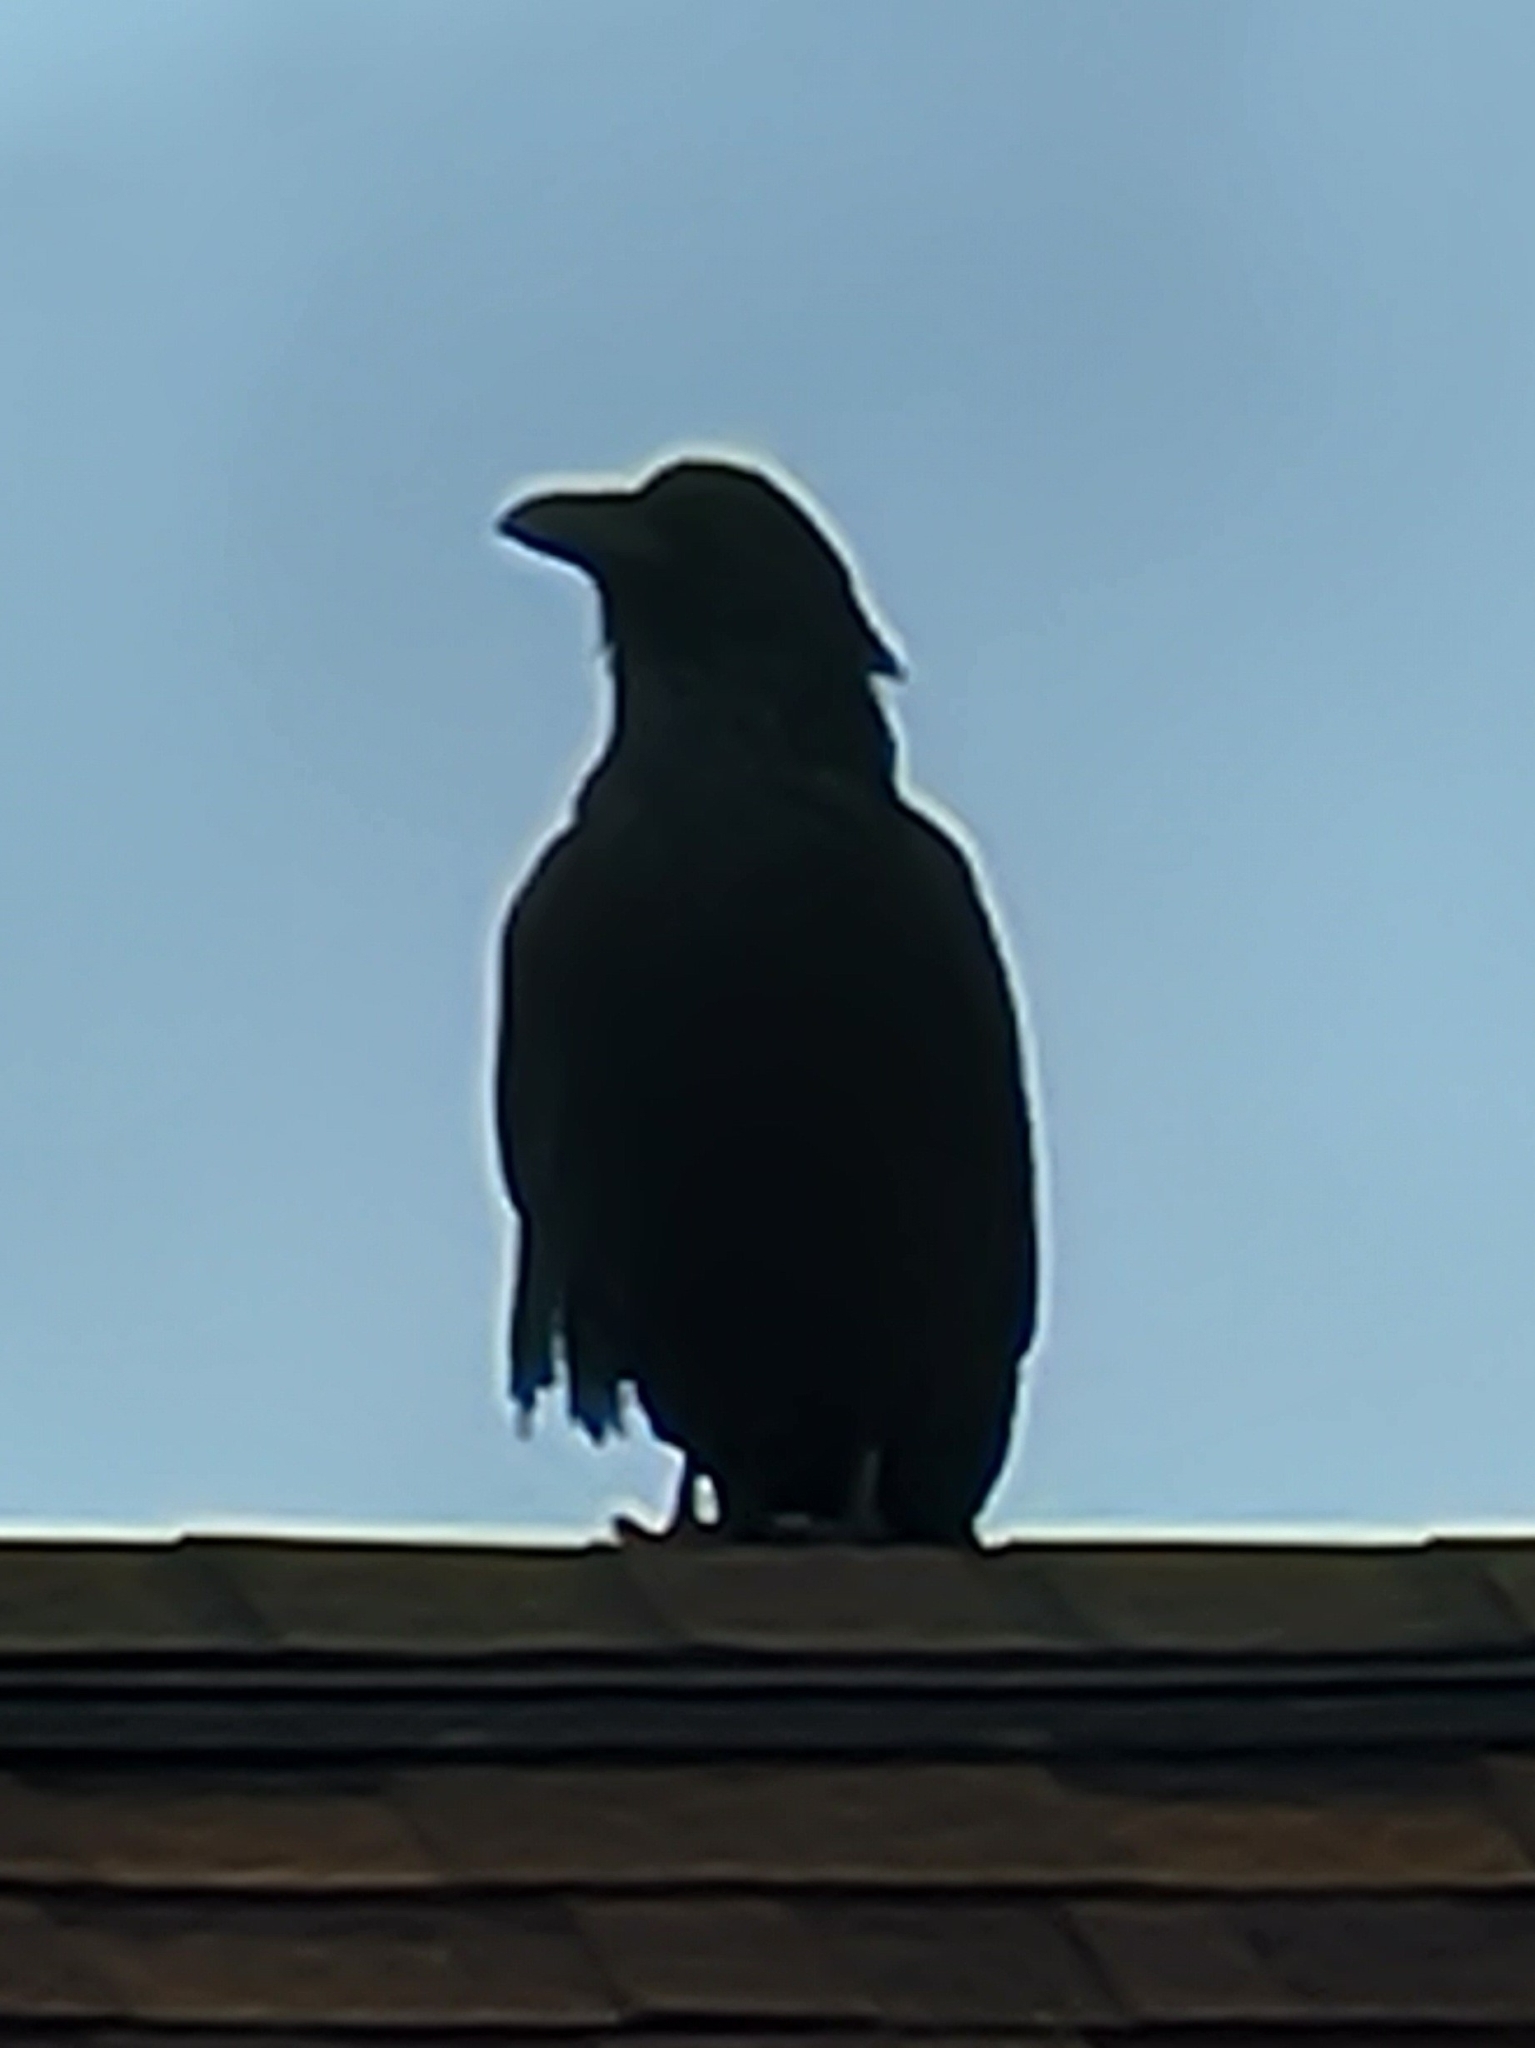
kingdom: Animalia
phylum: Chordata
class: Aves
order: Passeriformes
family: Corvidae
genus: Corvus
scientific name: Corvus corax
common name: Common raven
